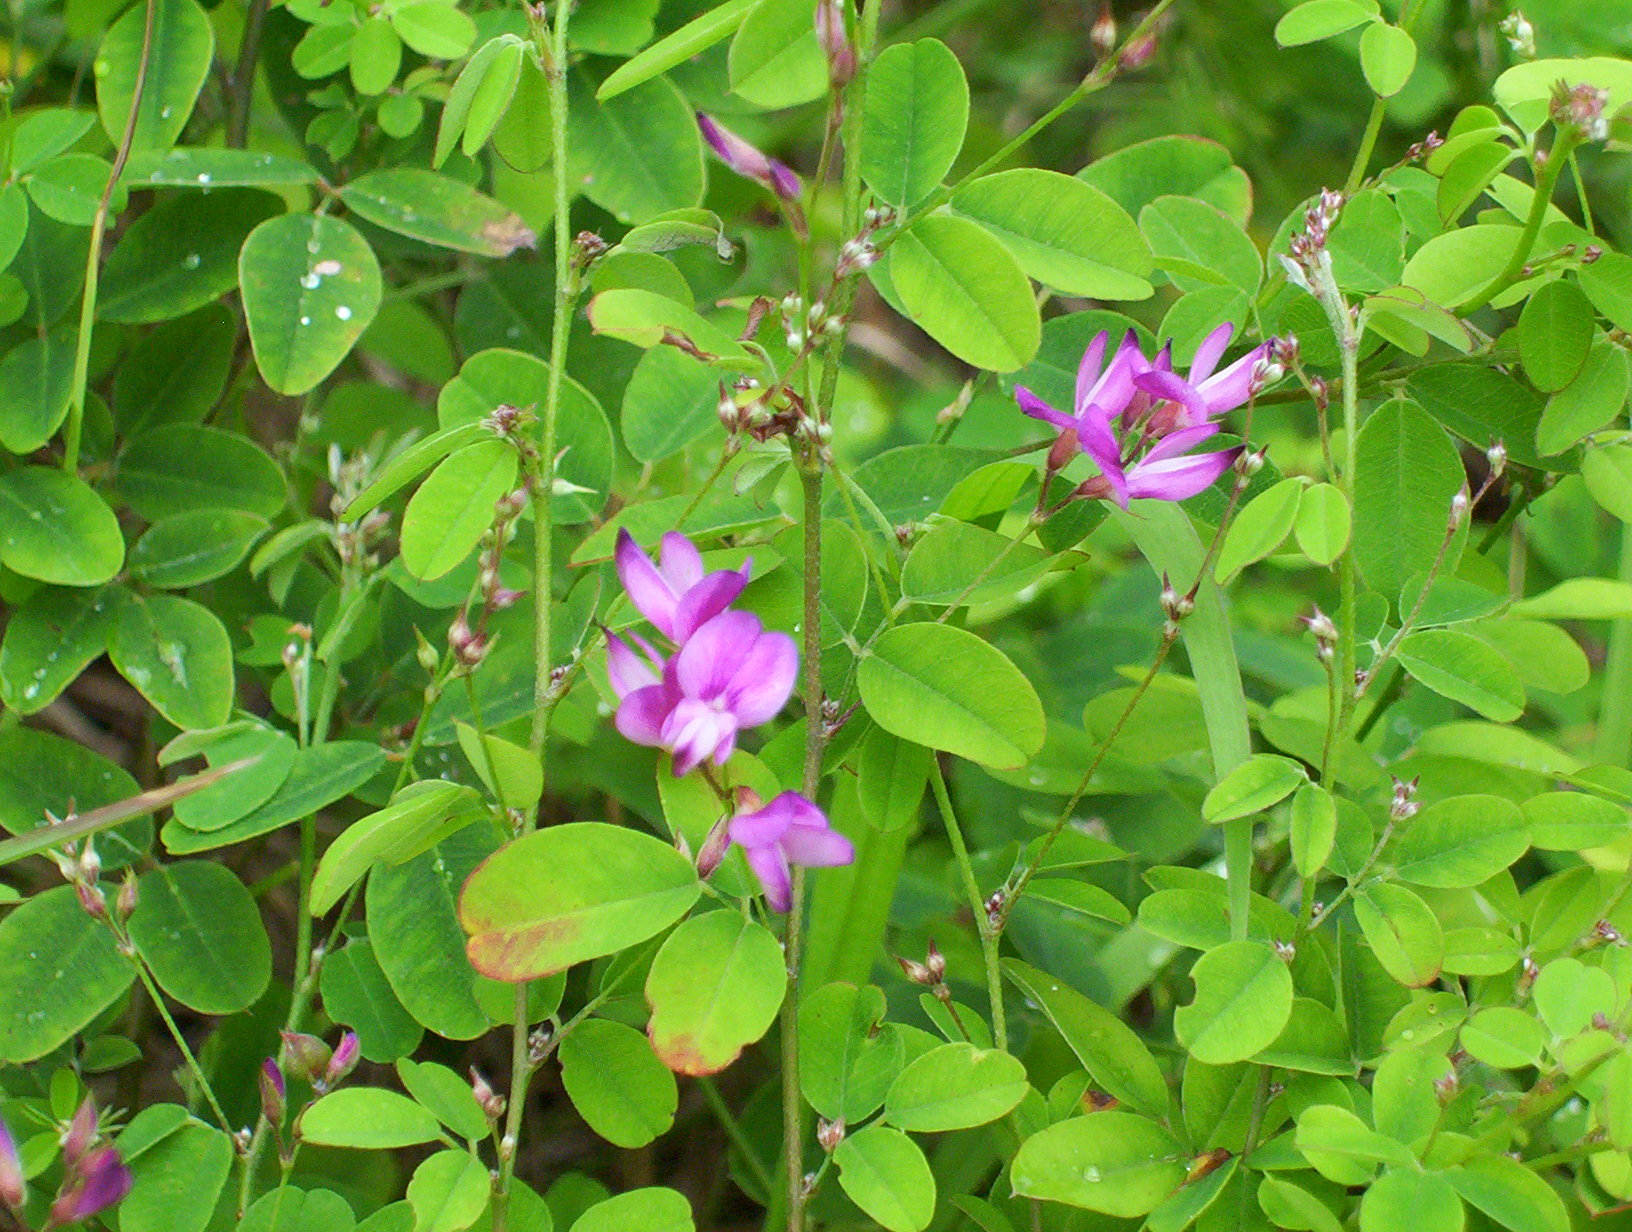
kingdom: Plantae
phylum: Tracheophyta
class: Magnoliopsida
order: Fabales
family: Fabaceae
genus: Lespedeza
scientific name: Lespedeza
